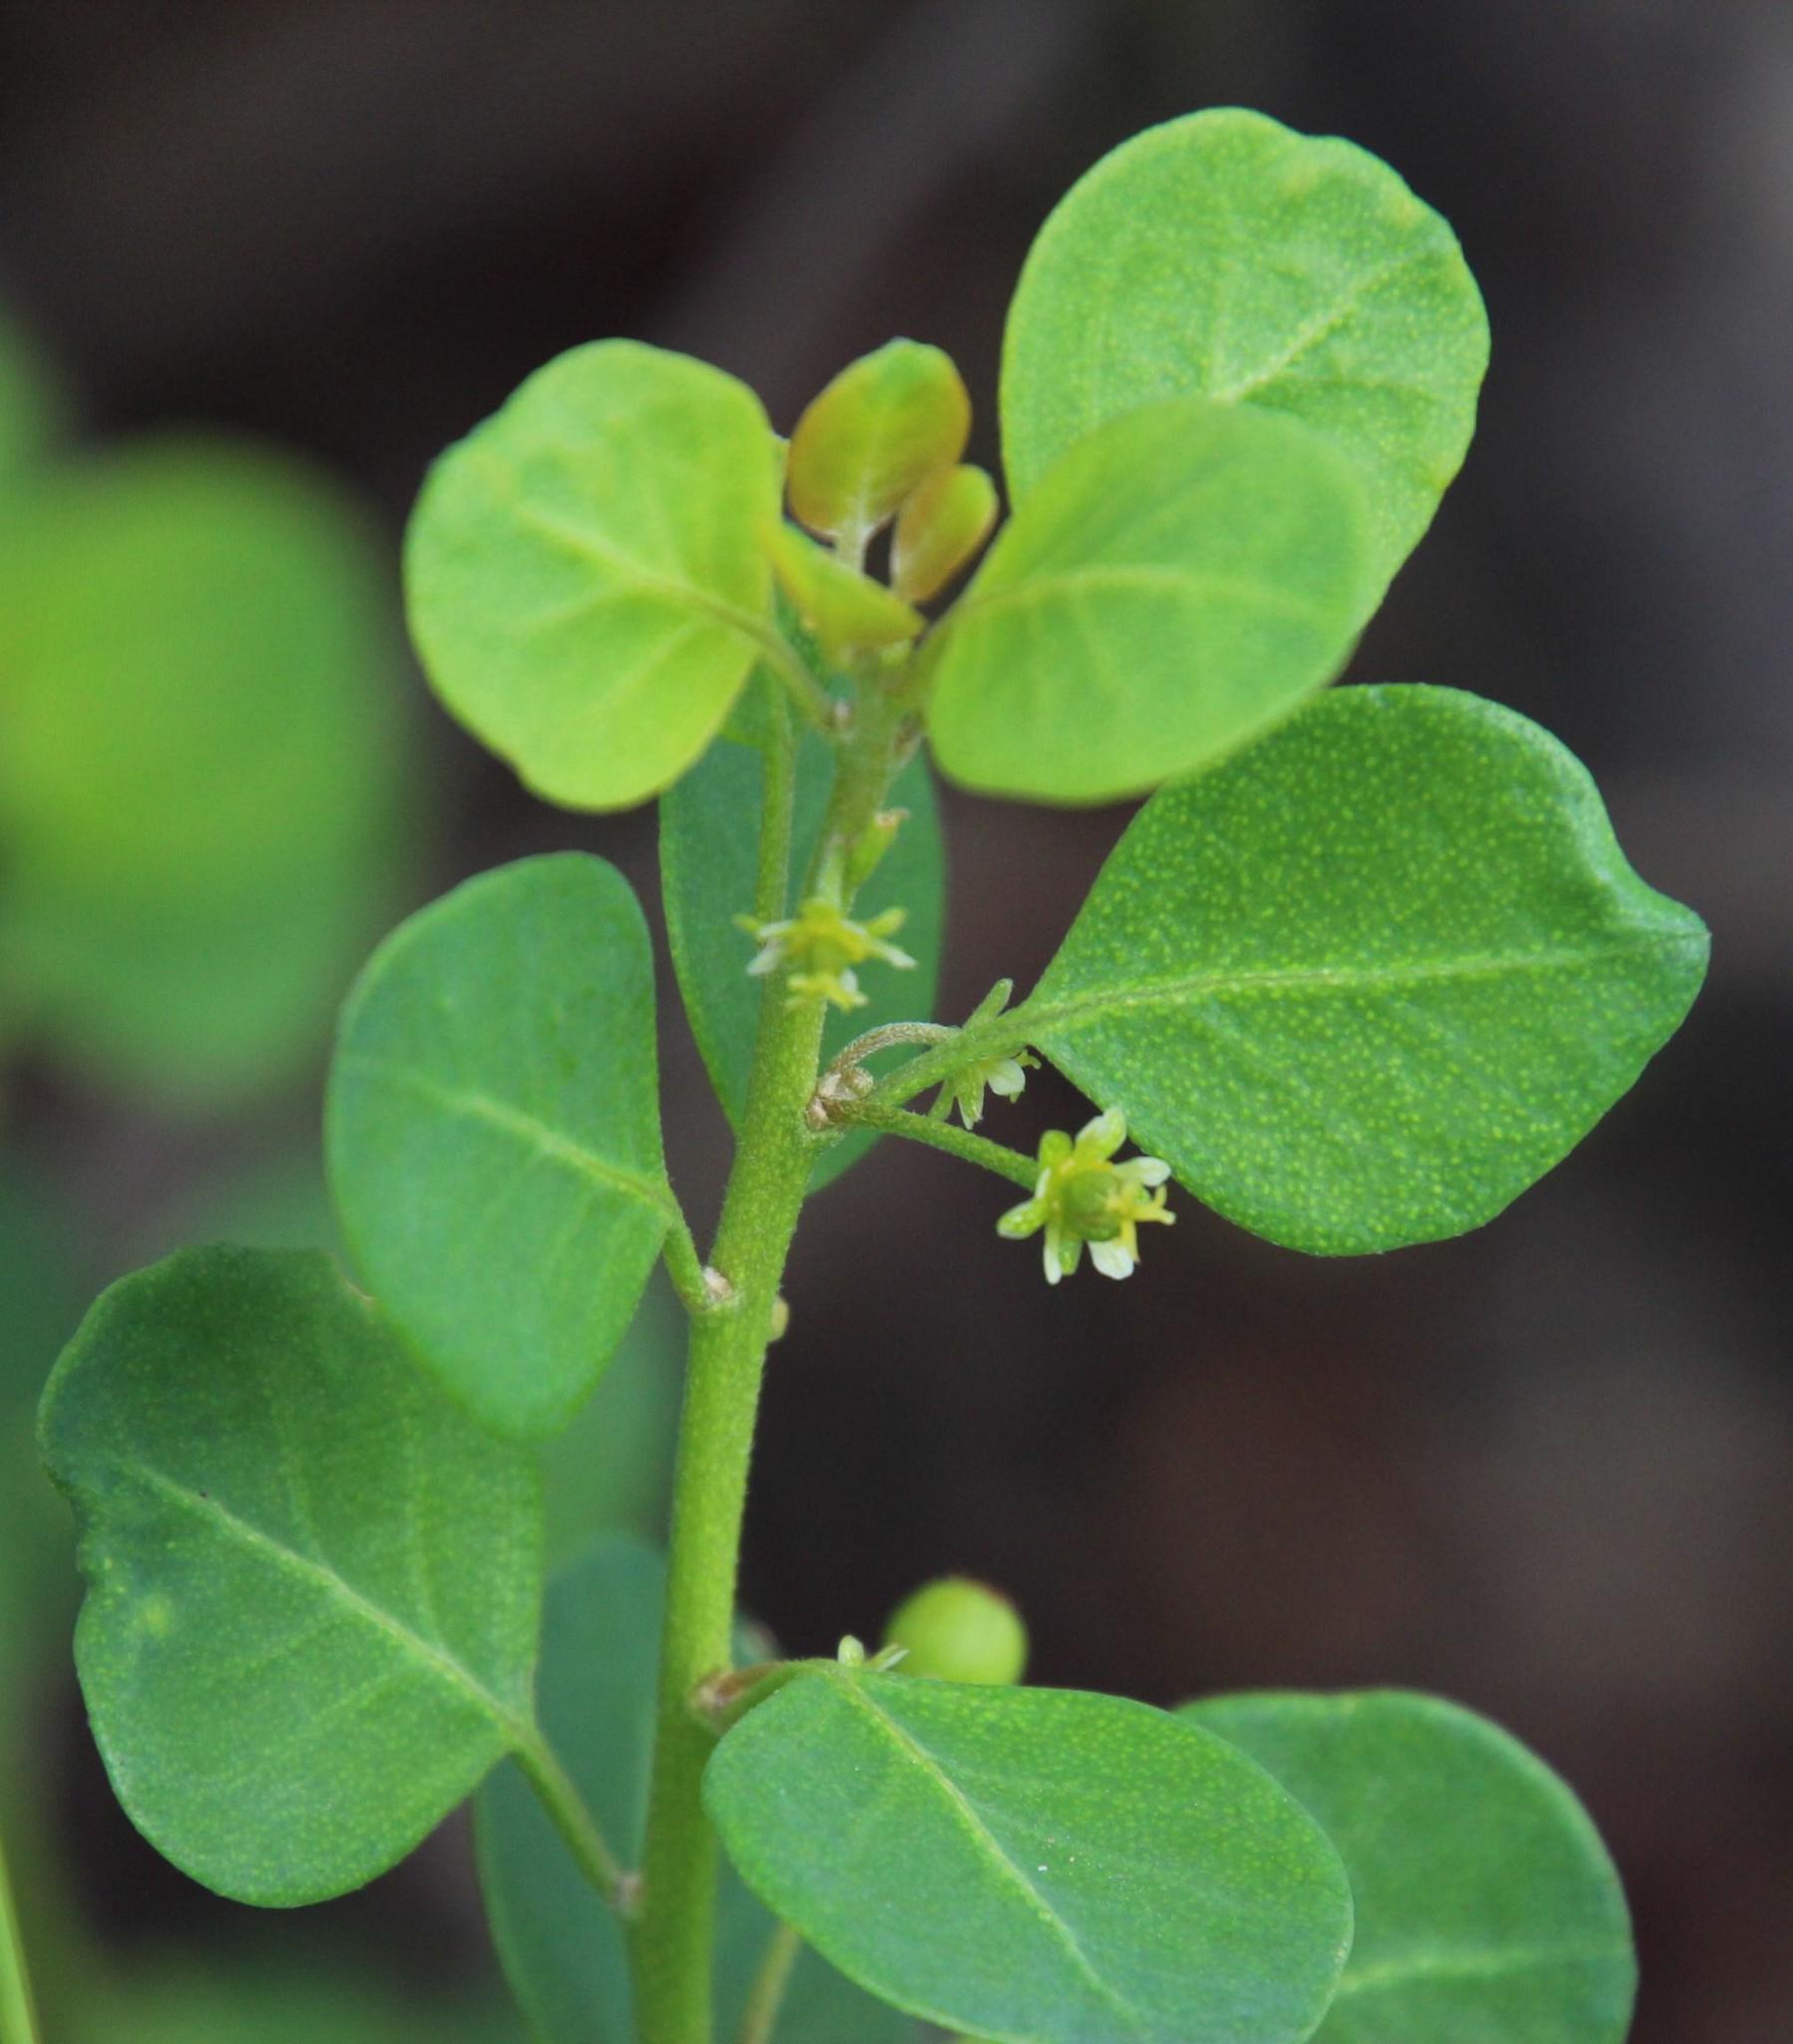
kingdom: Plantae
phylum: Tracheophyta
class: Magnoliopsida
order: Malpighiales
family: Peraceae
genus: Clutia
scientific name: Clutia pulchella
